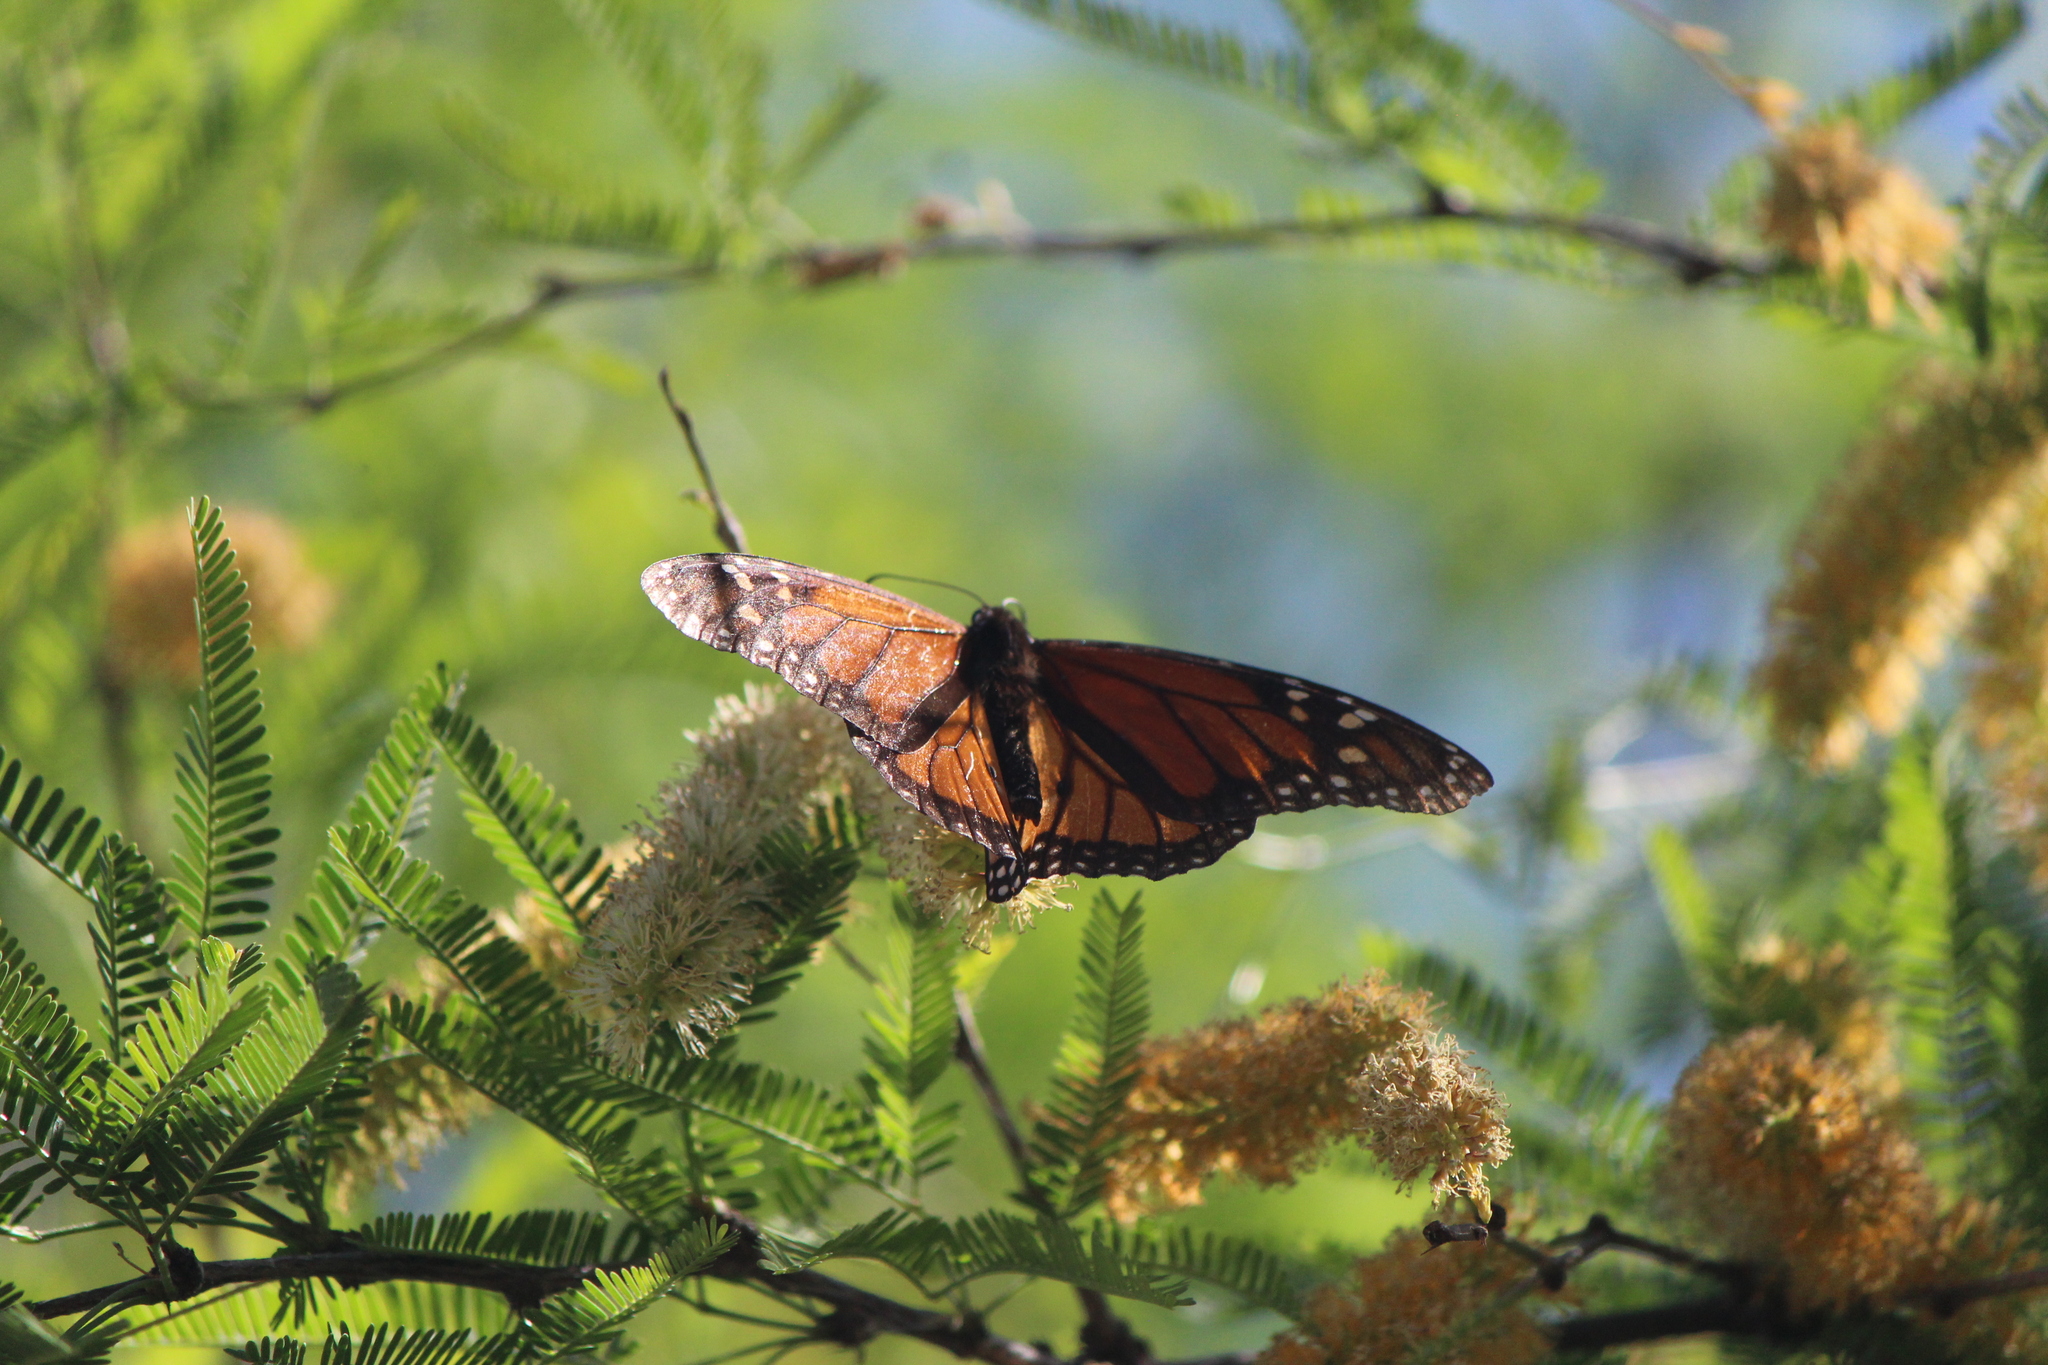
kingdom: Animalia
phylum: Arthropoda
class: Insecta
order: Lepidoptera
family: Nymphalidae
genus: Danaus
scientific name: Danaus plexippus
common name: Monarch
